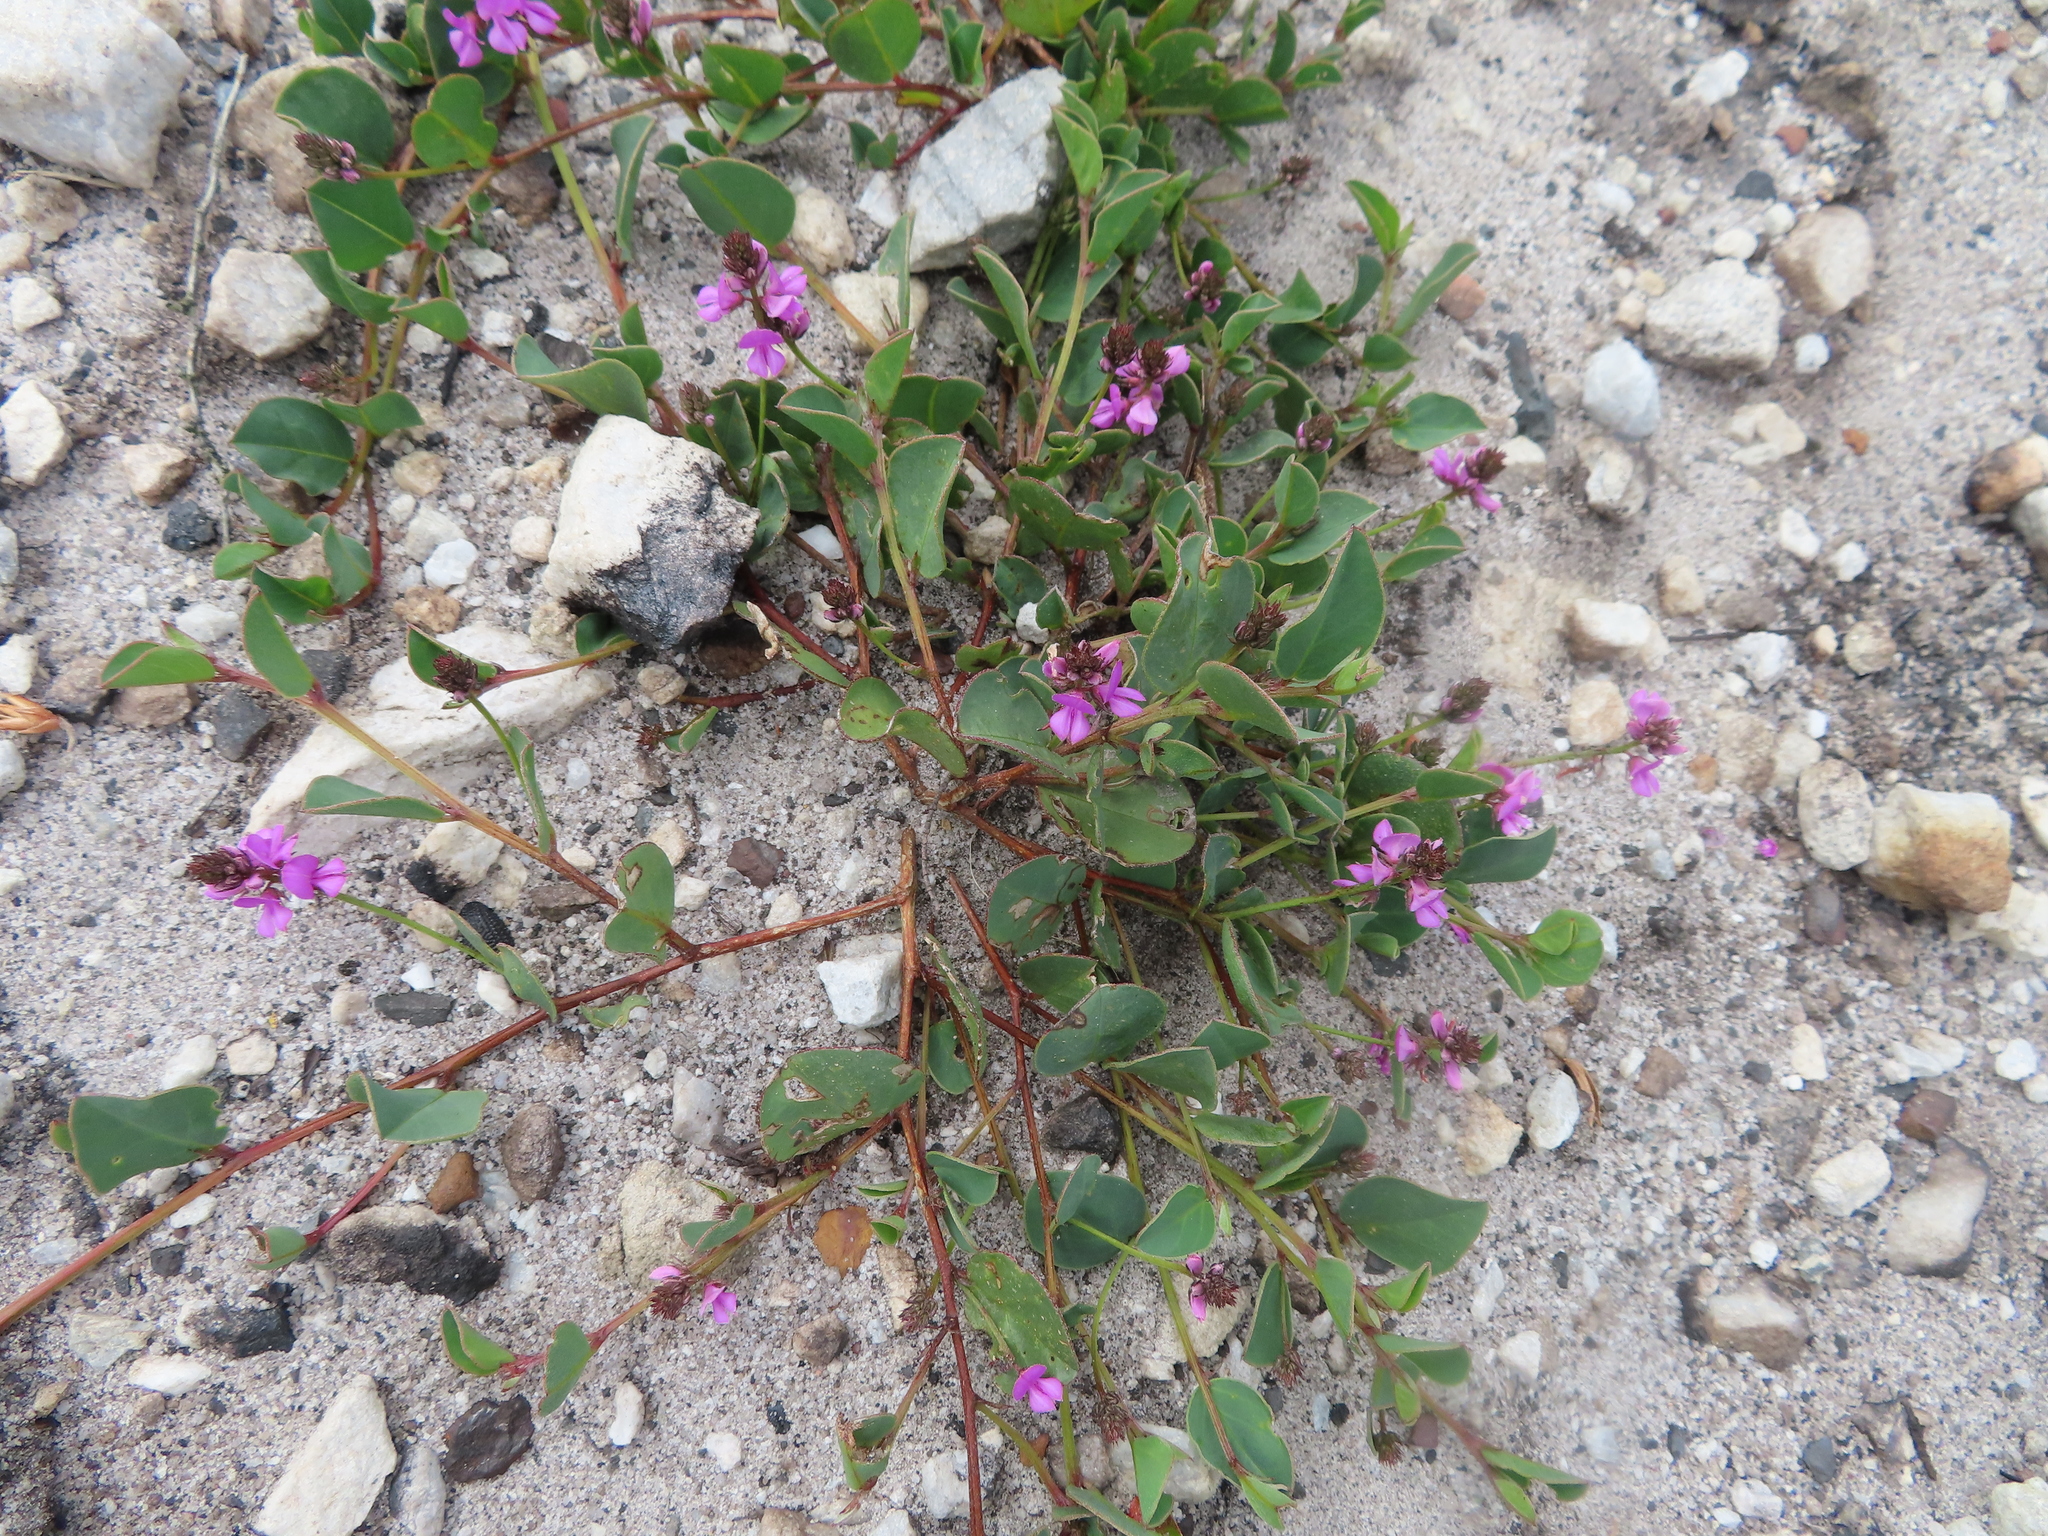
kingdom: Plantae
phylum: Tracheophyta
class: Magnoliopsida
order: Fabales
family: Fabaceae
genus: Indigofera
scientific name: Indigofera ovata
